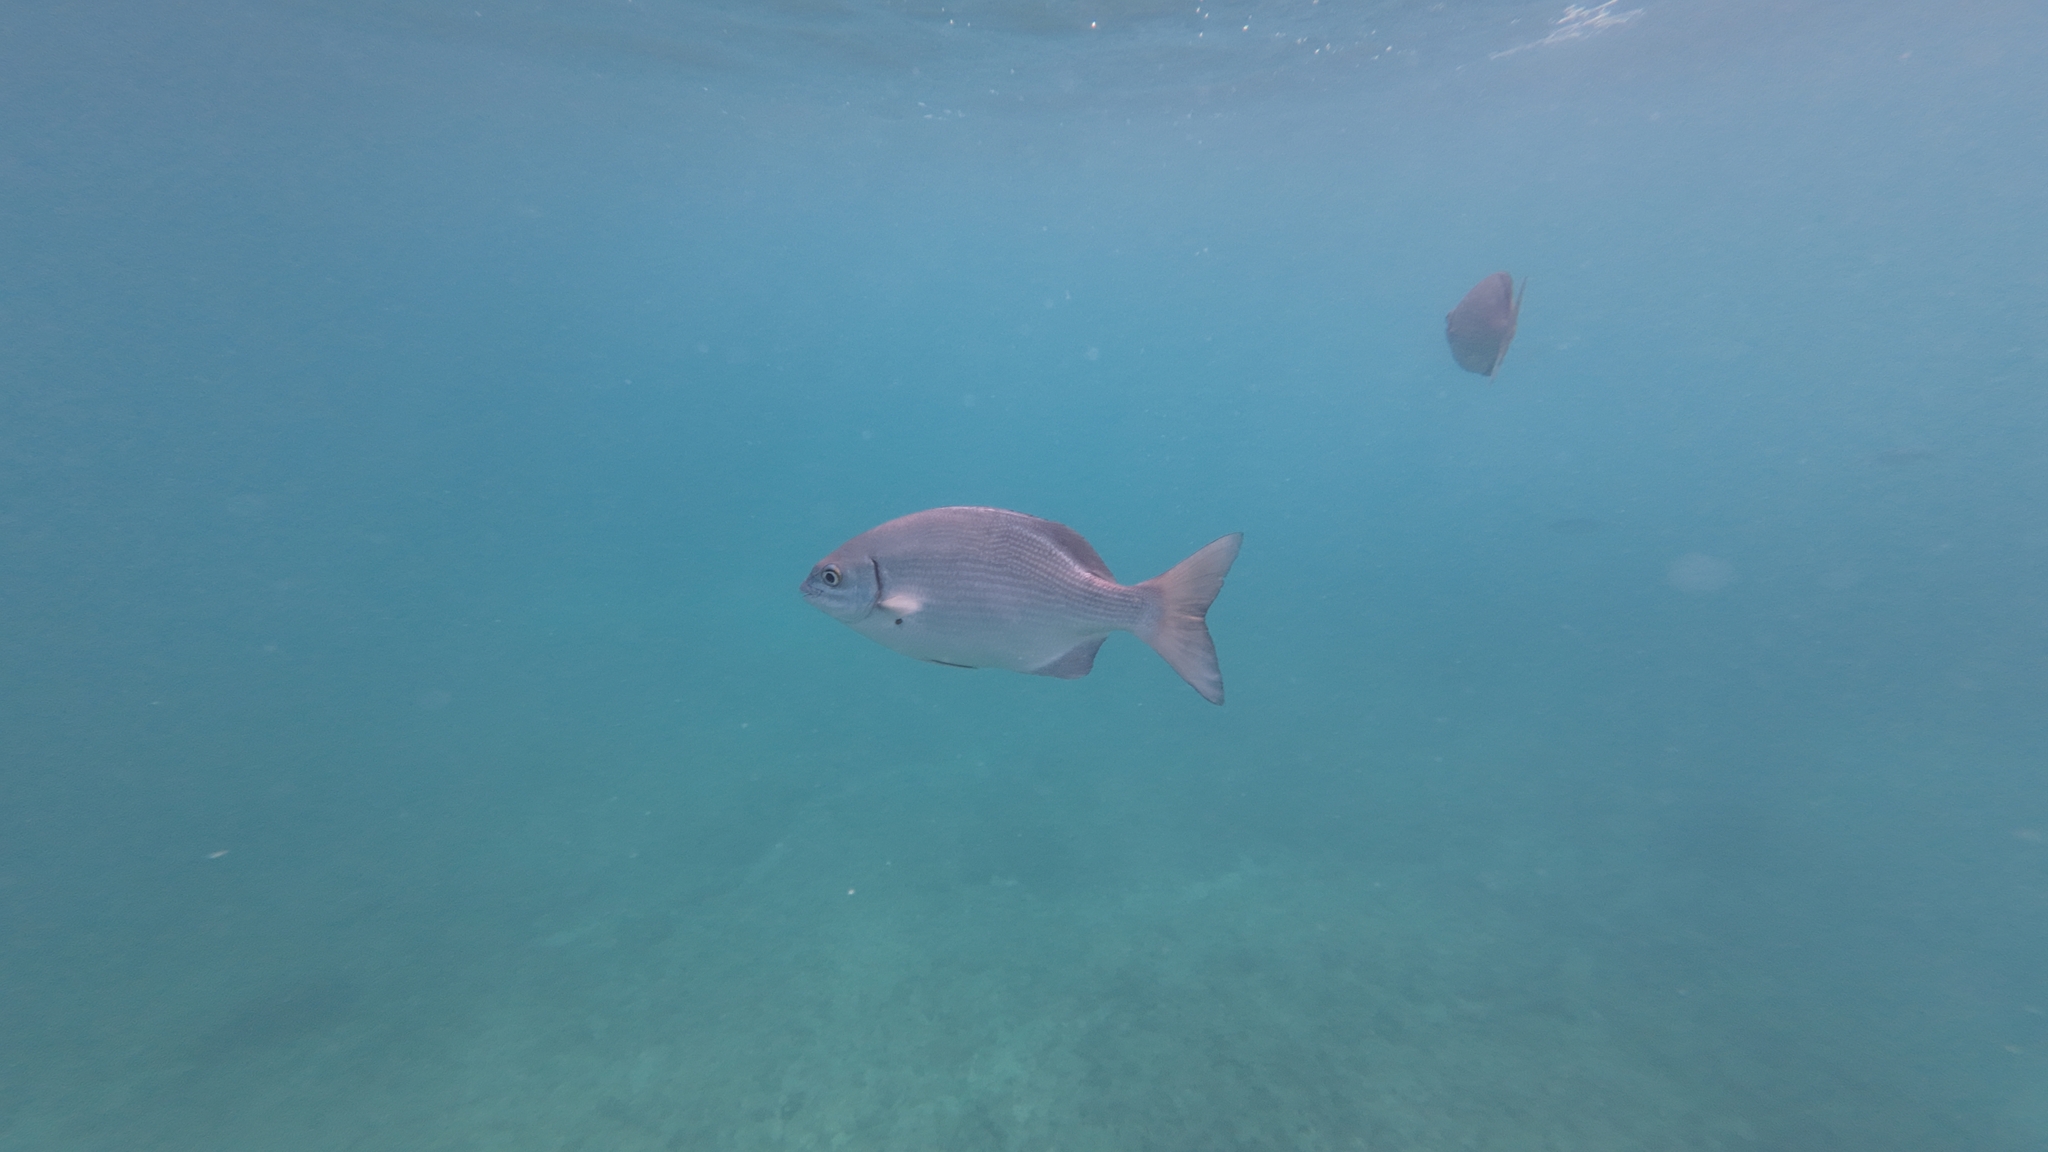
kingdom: Animalia
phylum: Chordata
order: Perciformes
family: Kyphosidae
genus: Kyphosus
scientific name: Kyphosus vaigiensis
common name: Brassy chub
